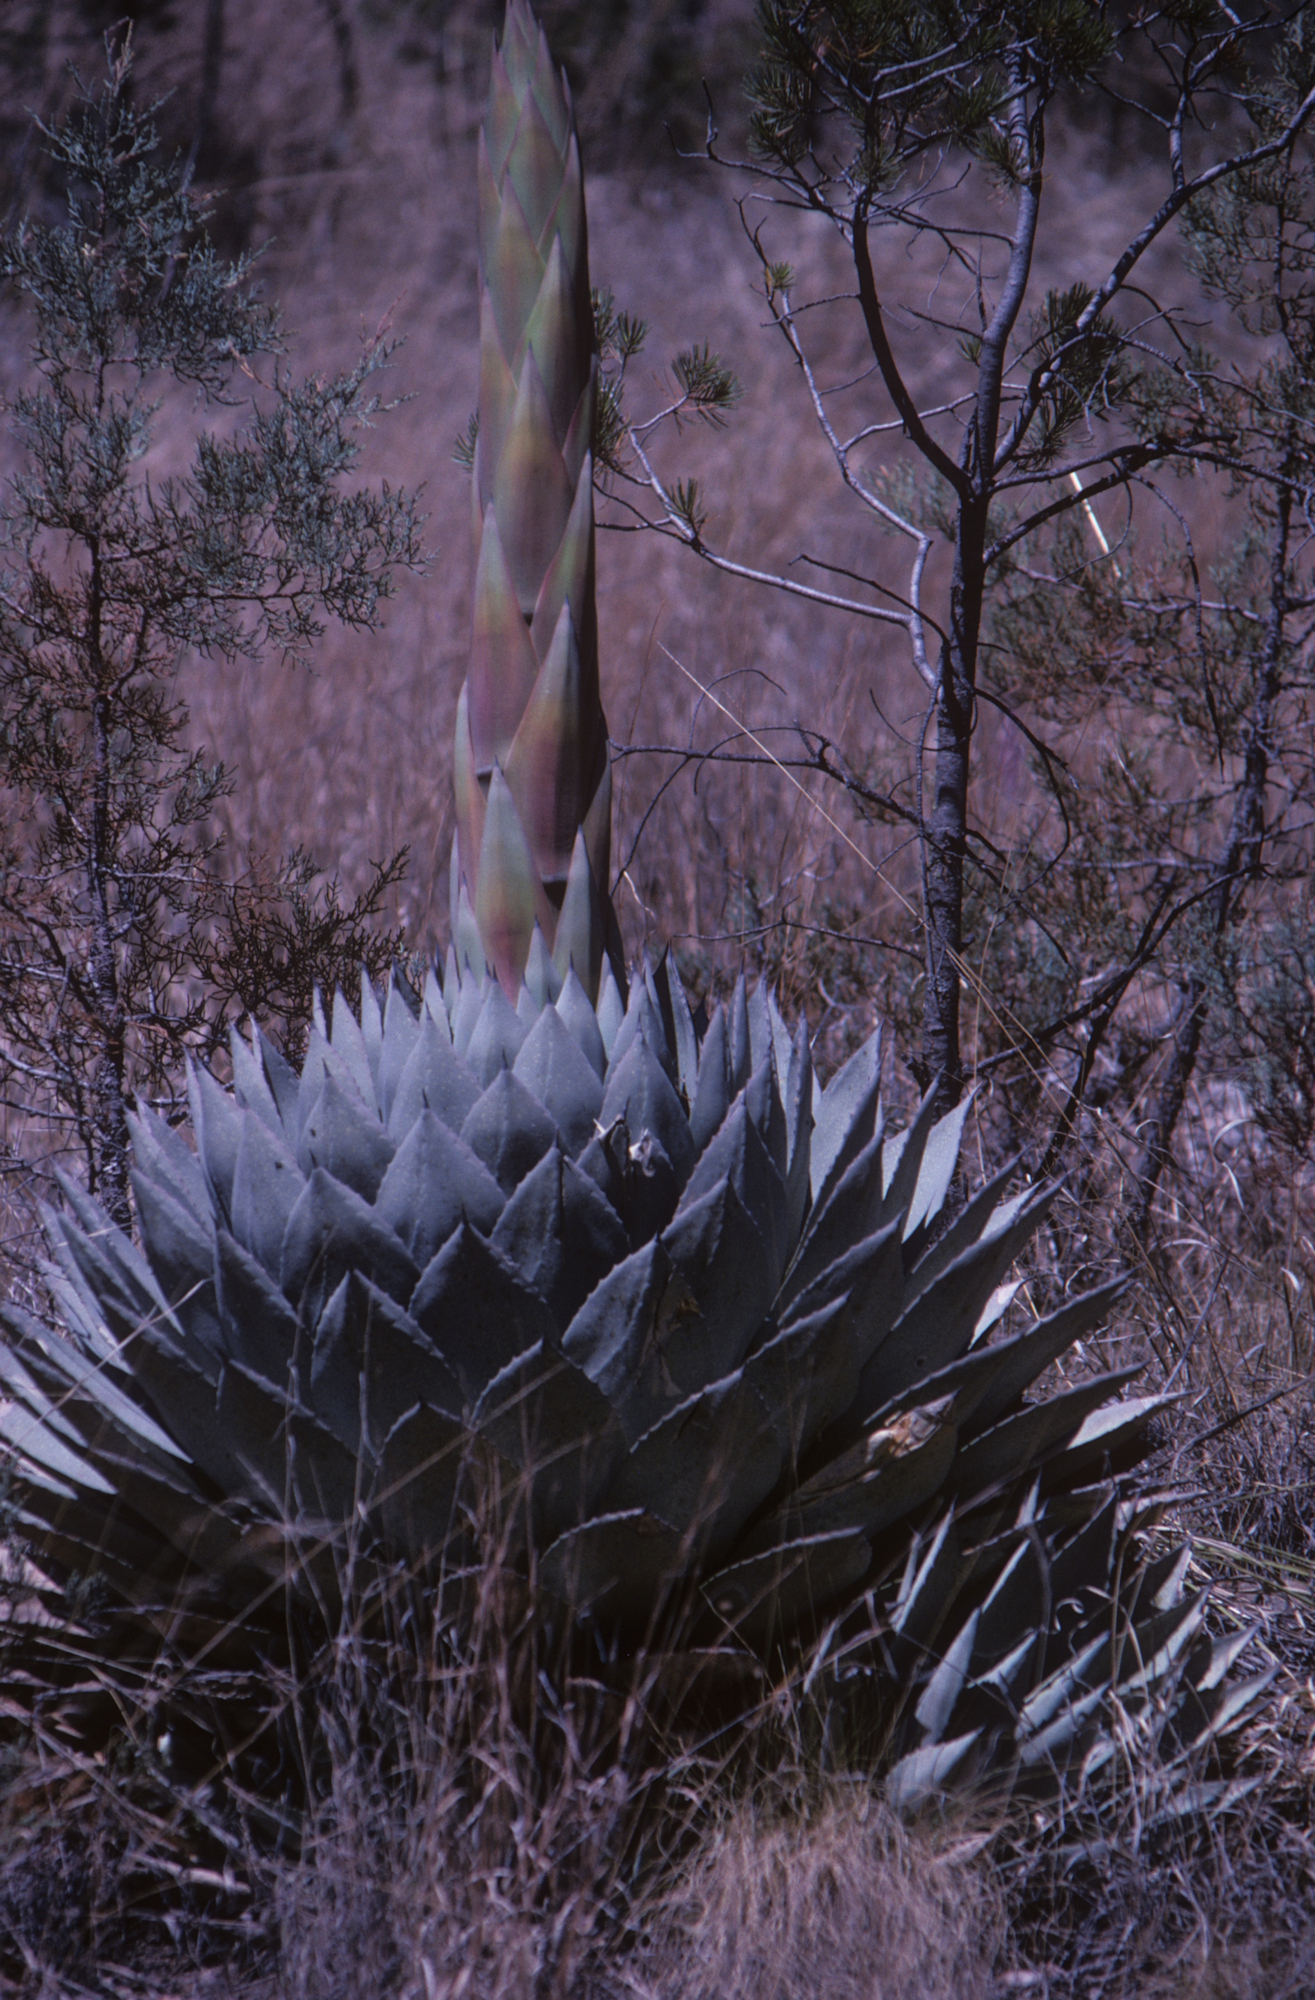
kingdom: Plantae
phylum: Tracheophyta
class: Liliopsida
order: Asparagales
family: Asparagaceae
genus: Agave
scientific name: Agave parryi
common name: Parry's agave
